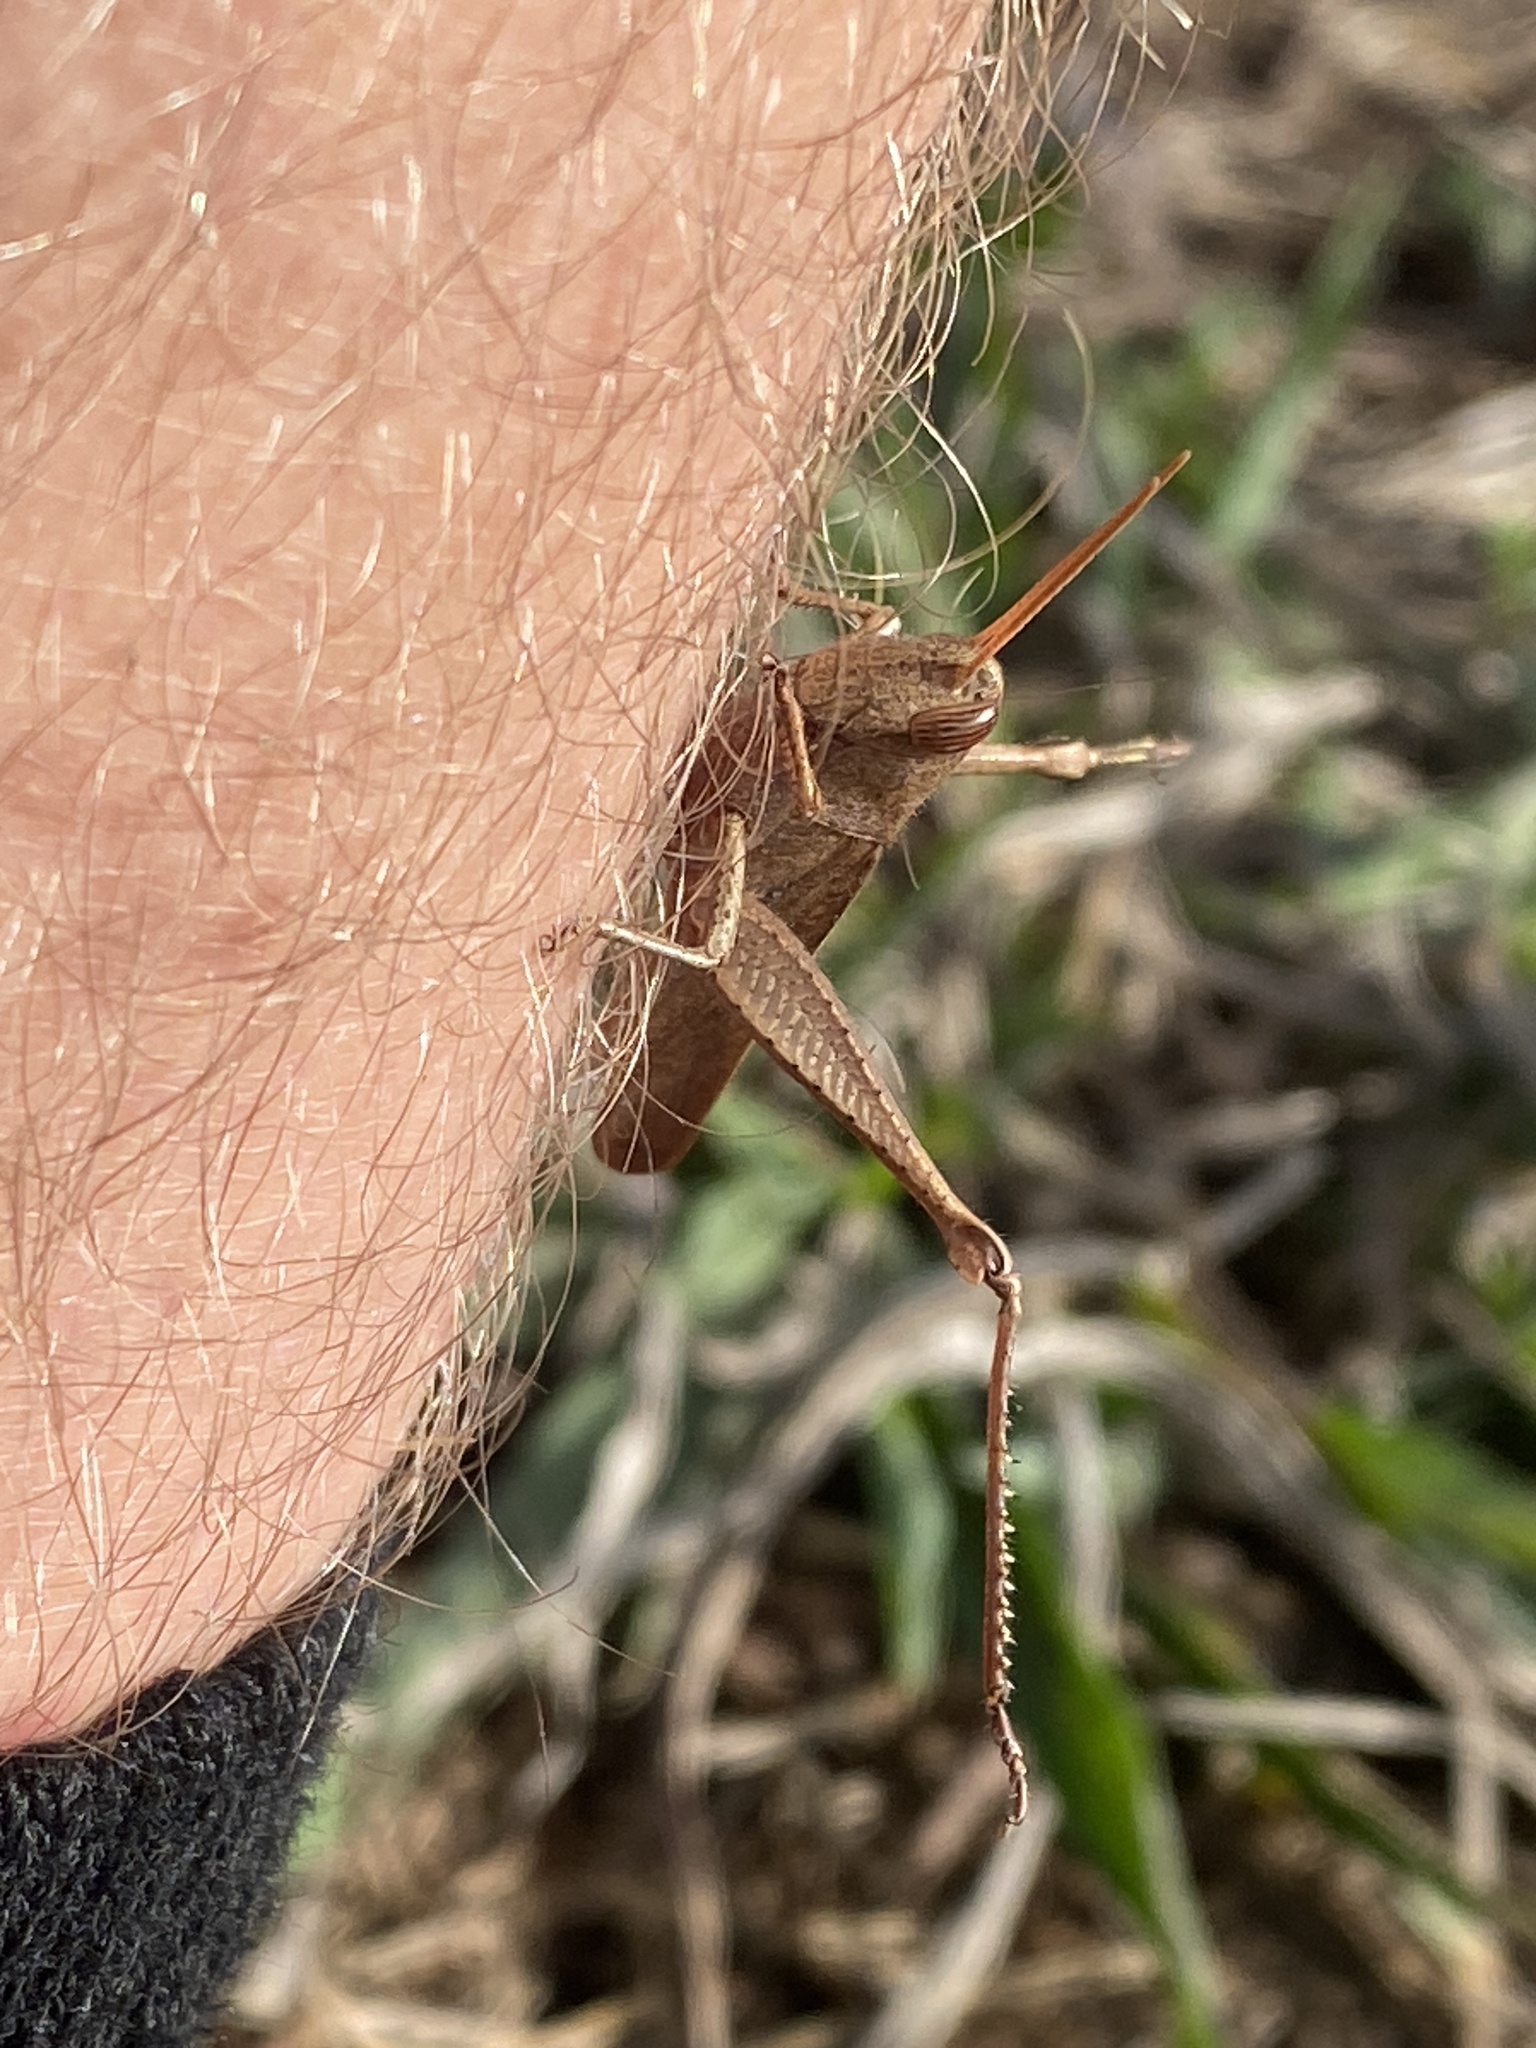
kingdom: Animalia
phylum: Arthropoda
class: Insecta
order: Orthoptera
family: Acrididae
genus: Schistocerca
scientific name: Schistocerca damnifica
